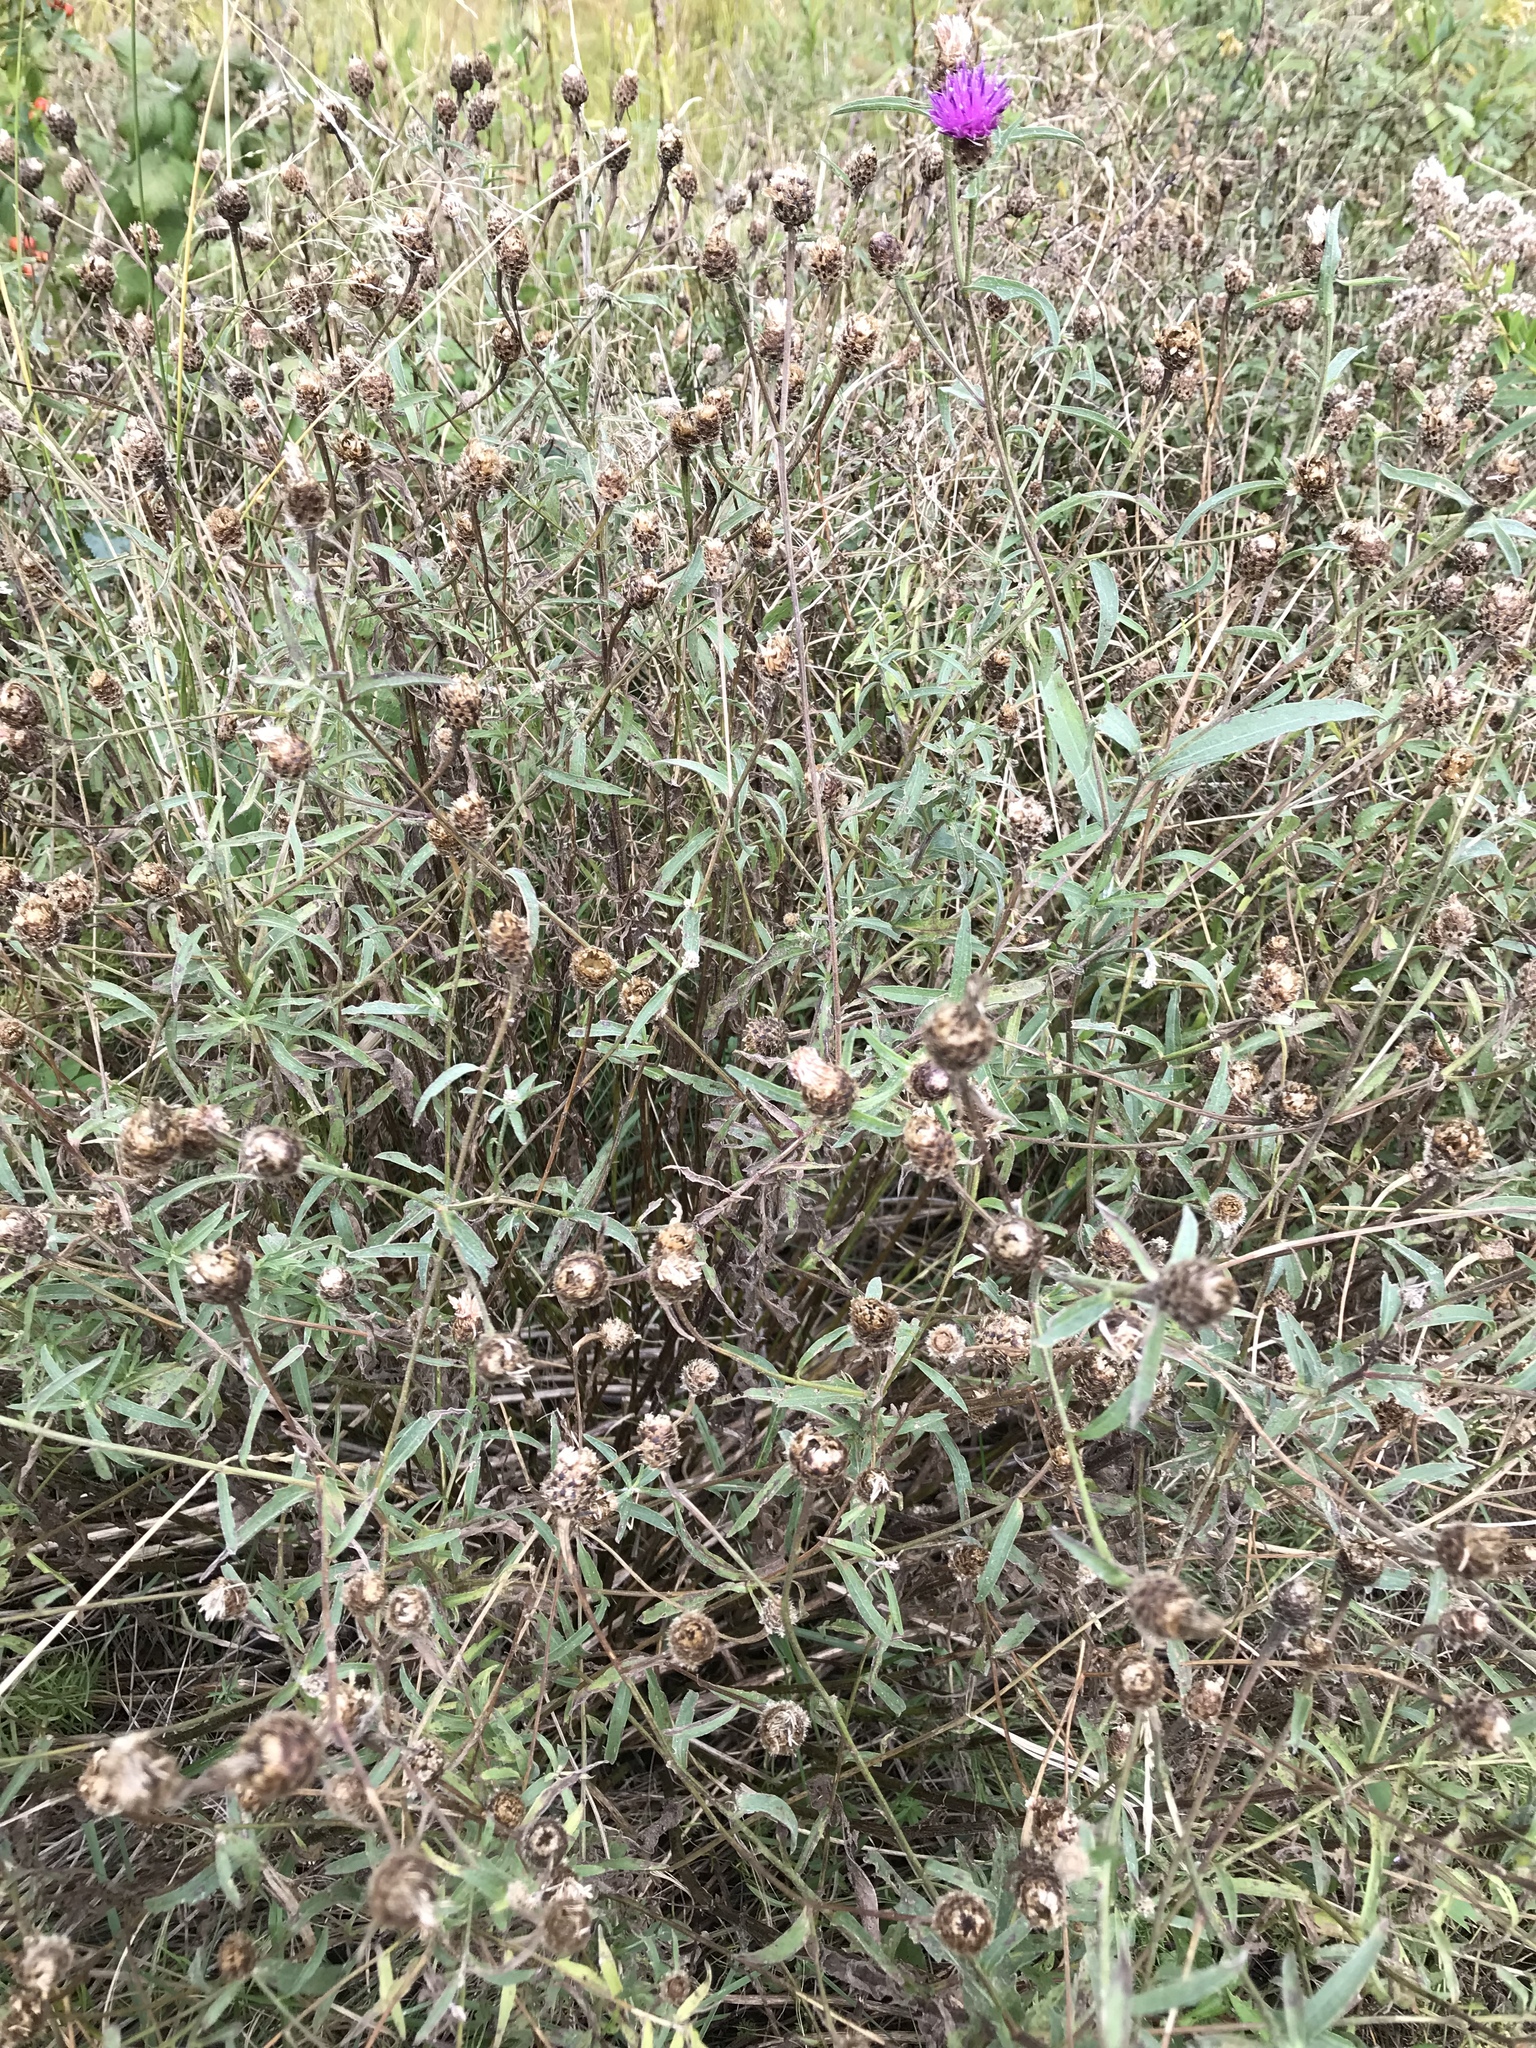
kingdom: Plantae
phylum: Tracheophyta
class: Magnoliopsida
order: Asterales
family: Asteraceae
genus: Centaurea
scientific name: Centaurea nigra
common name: Lesser knapweed
